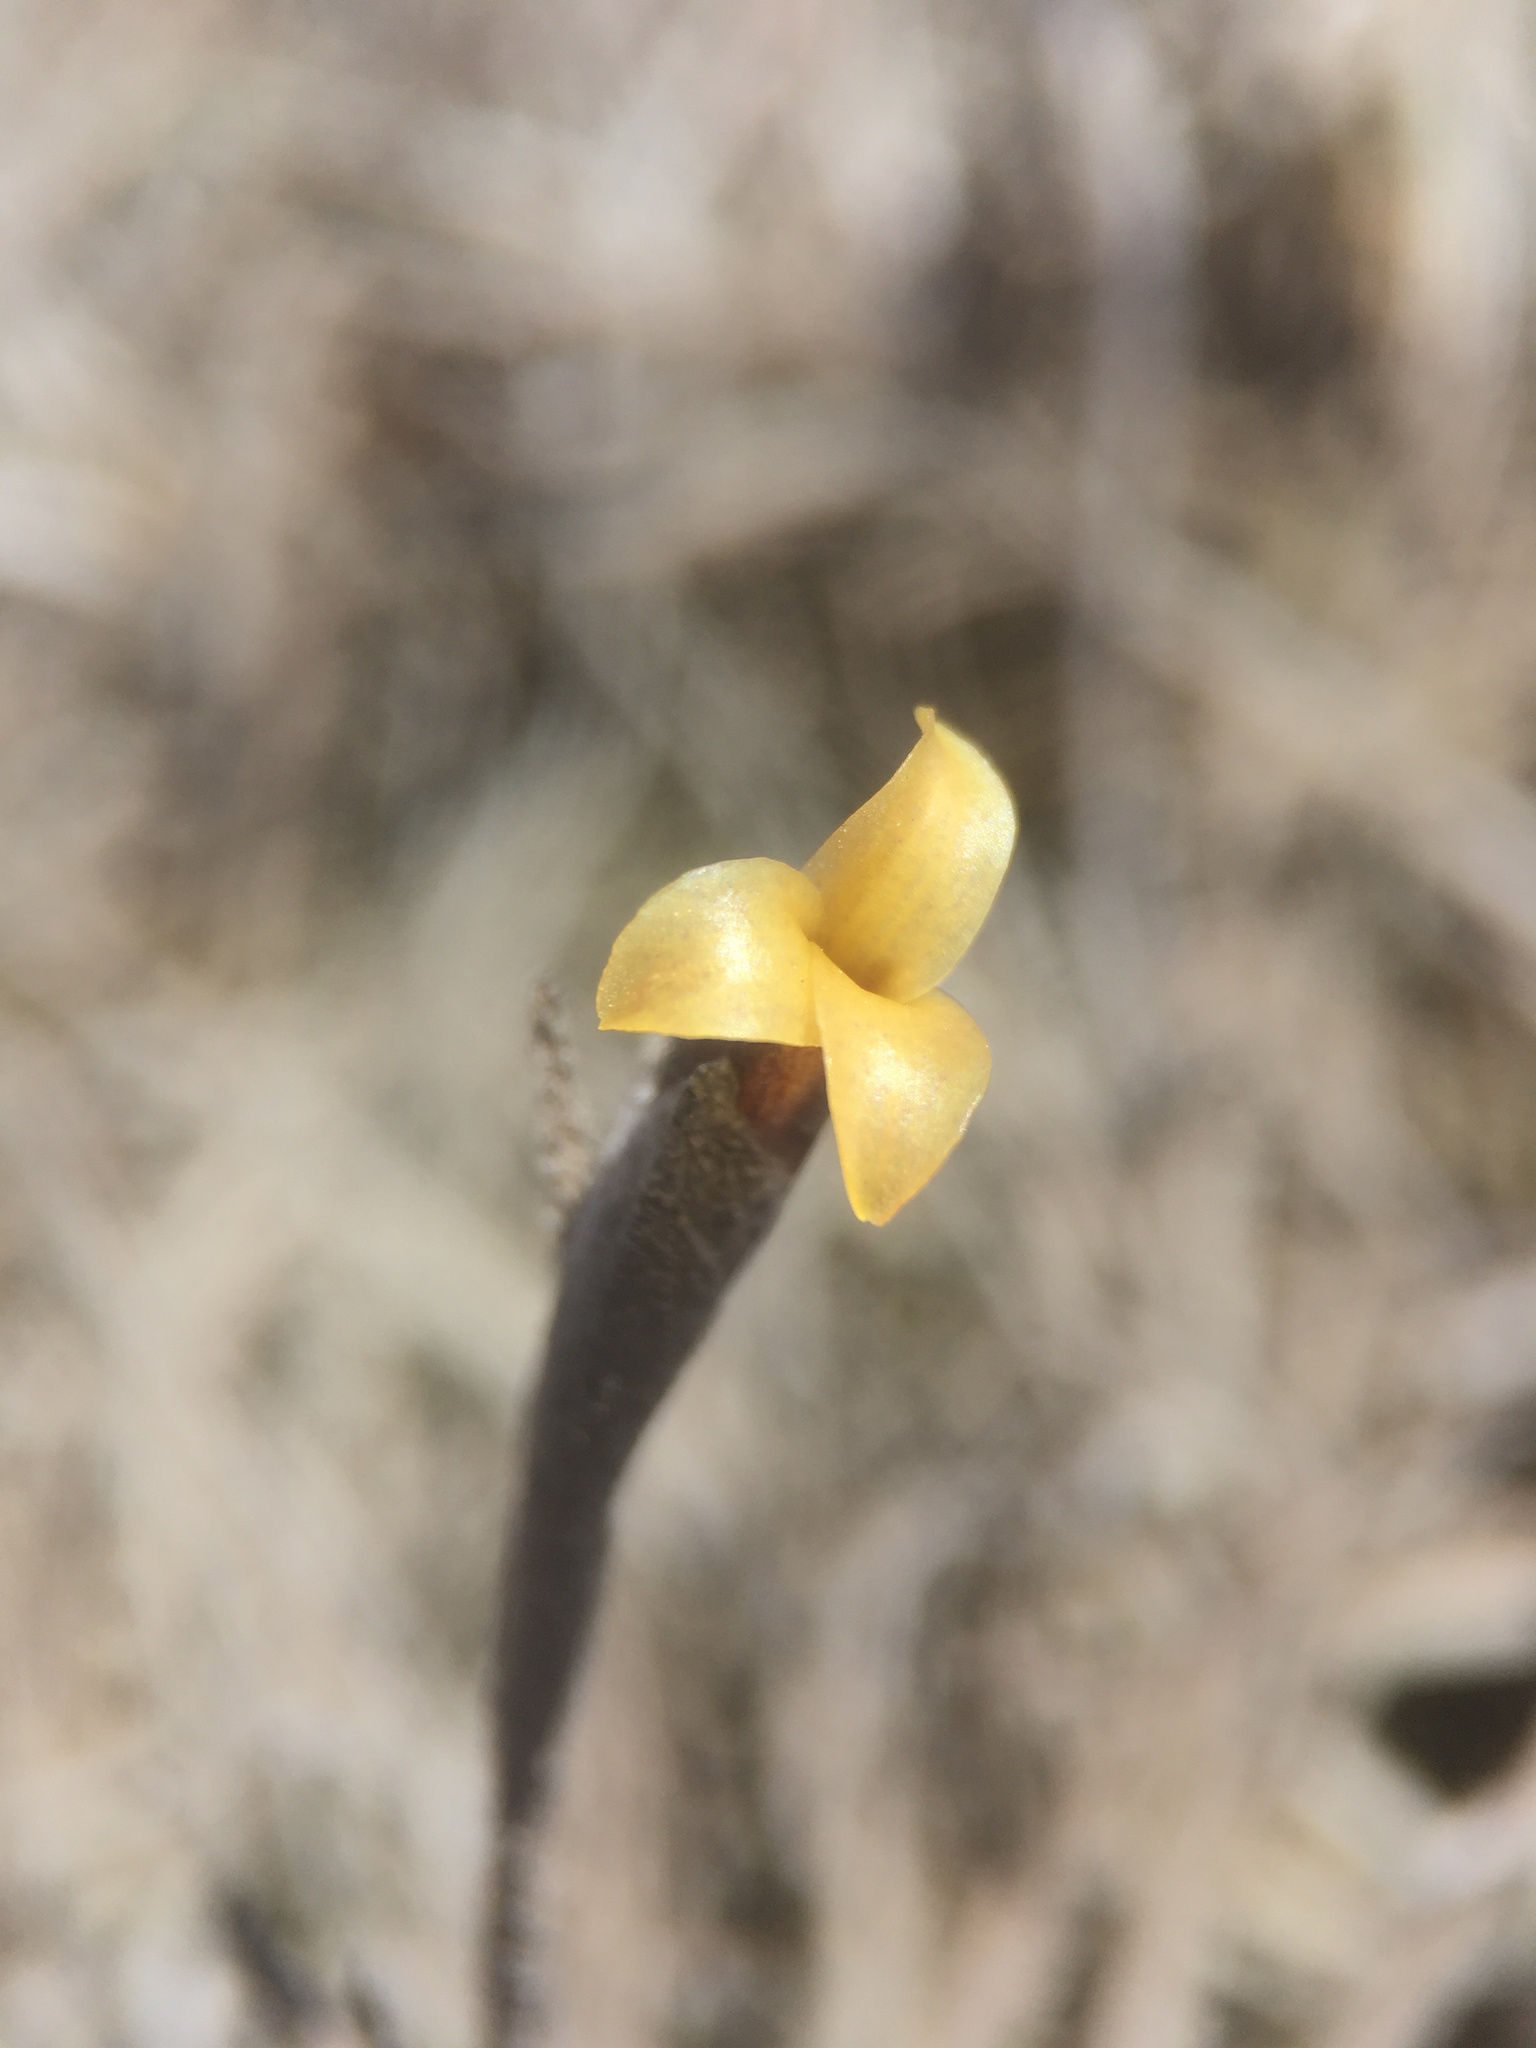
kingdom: Plantae
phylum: Tracheophyta
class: Liliopsida
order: Poales
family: Bromeliaceae
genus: Tillandsia
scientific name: Tillandsia landbeckii
